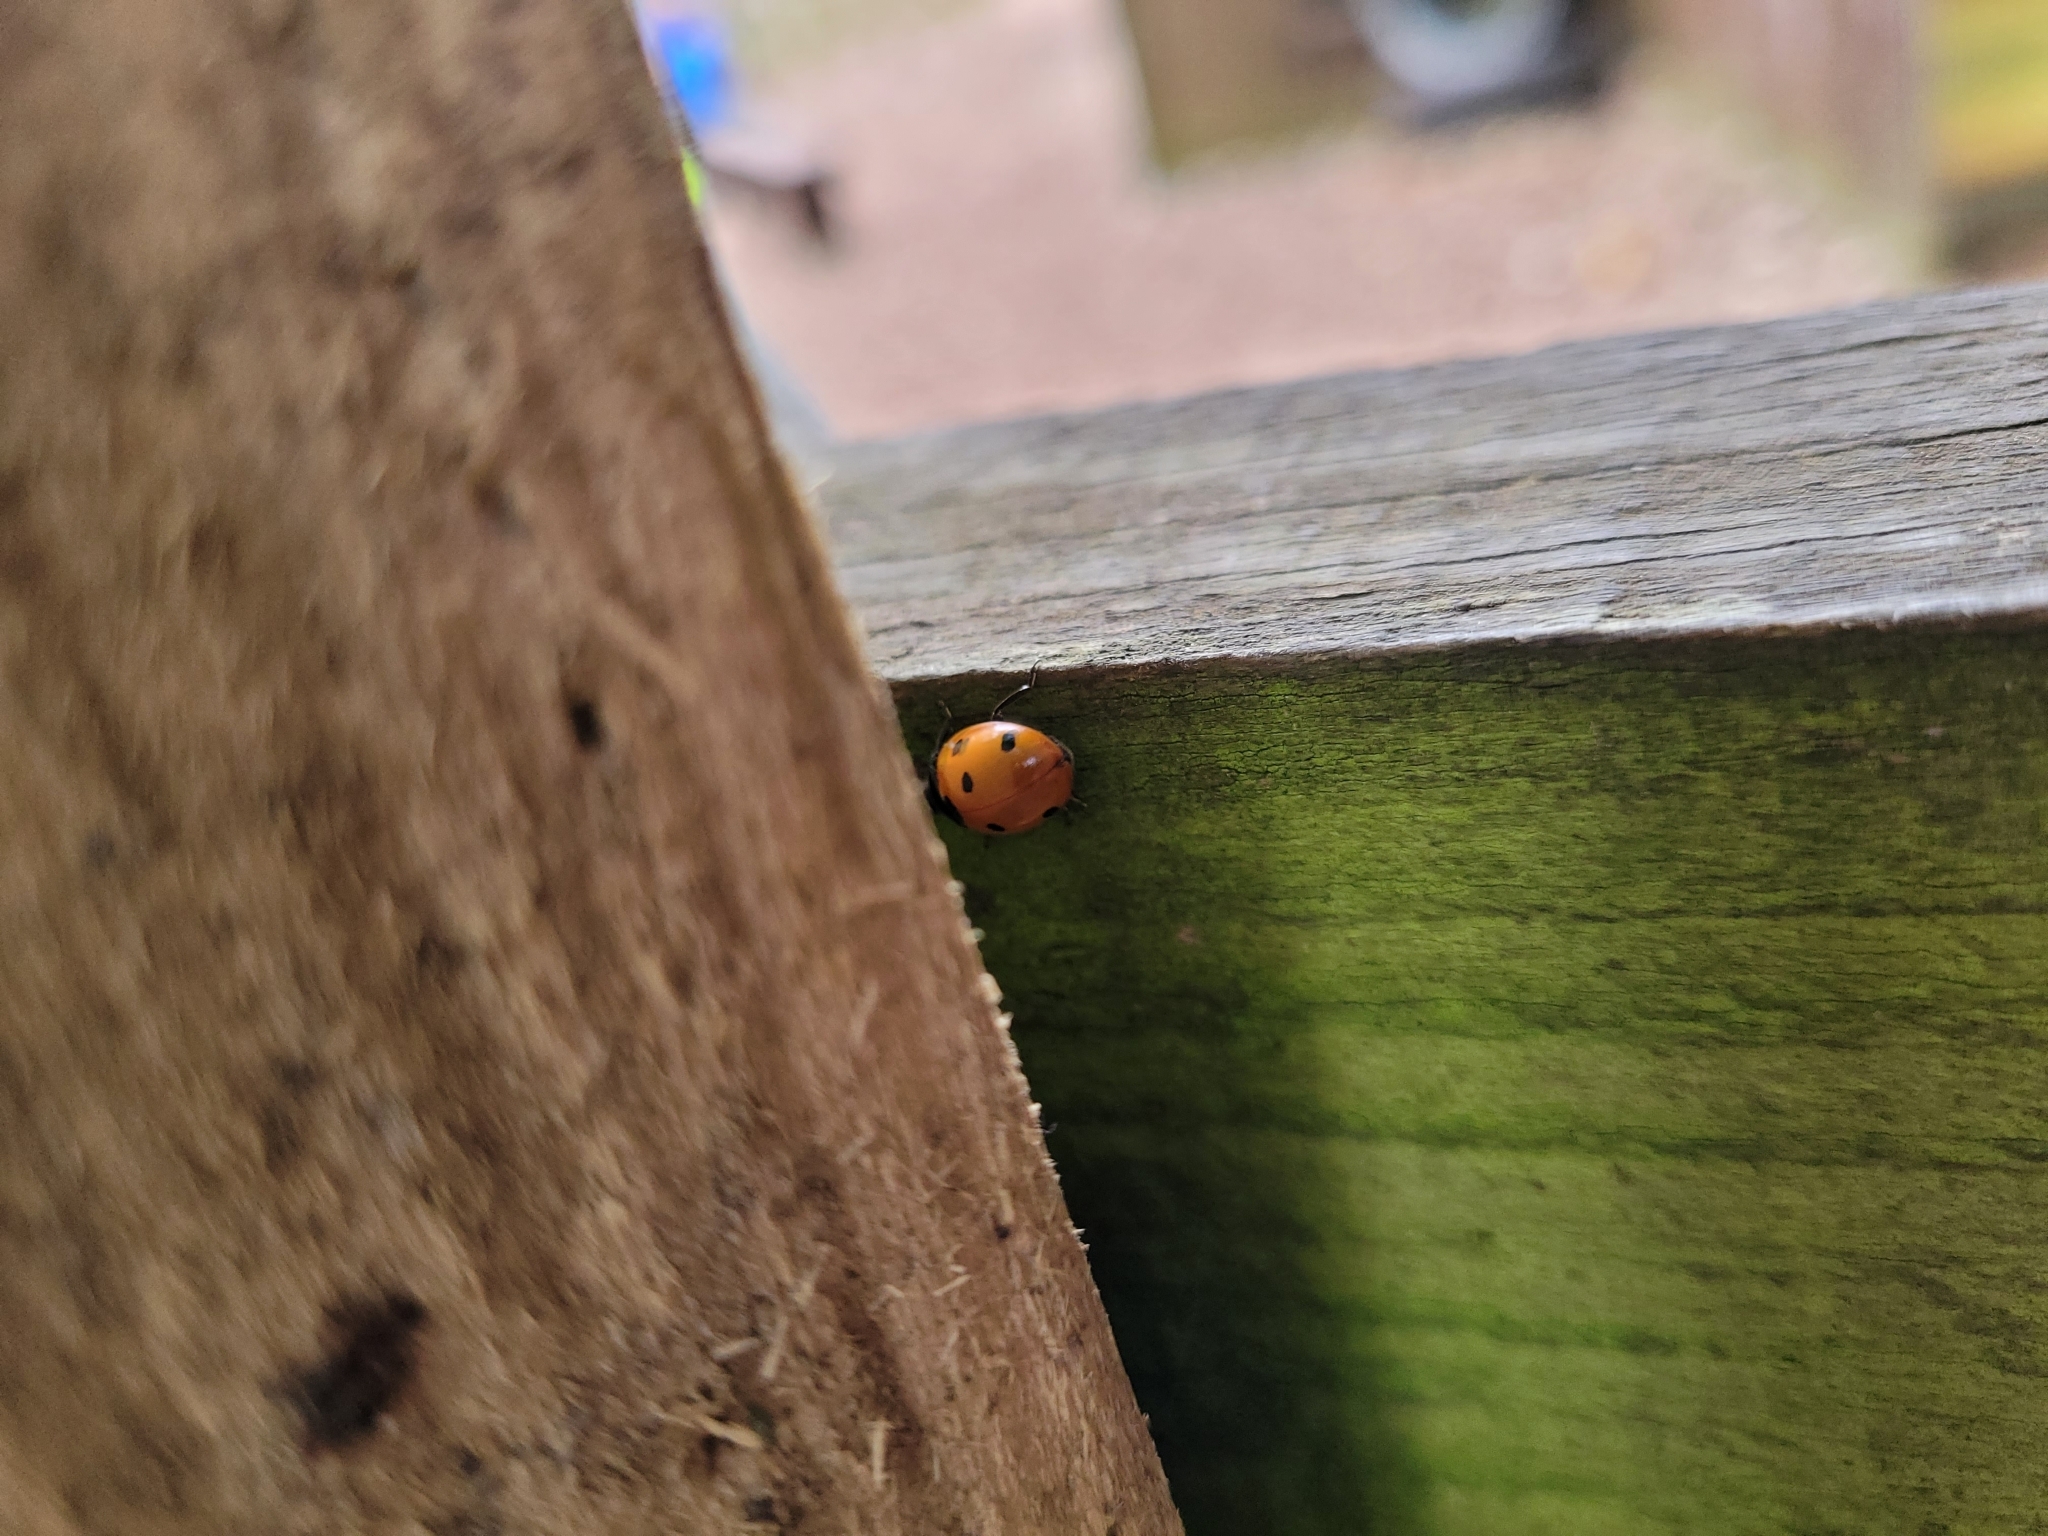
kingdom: Animalia
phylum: Arthropoda
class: Insecta
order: Coleoptera
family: Coccinellidae
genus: Coccinella
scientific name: Coccinella septempunctata
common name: Sevenspotted lady beetle
